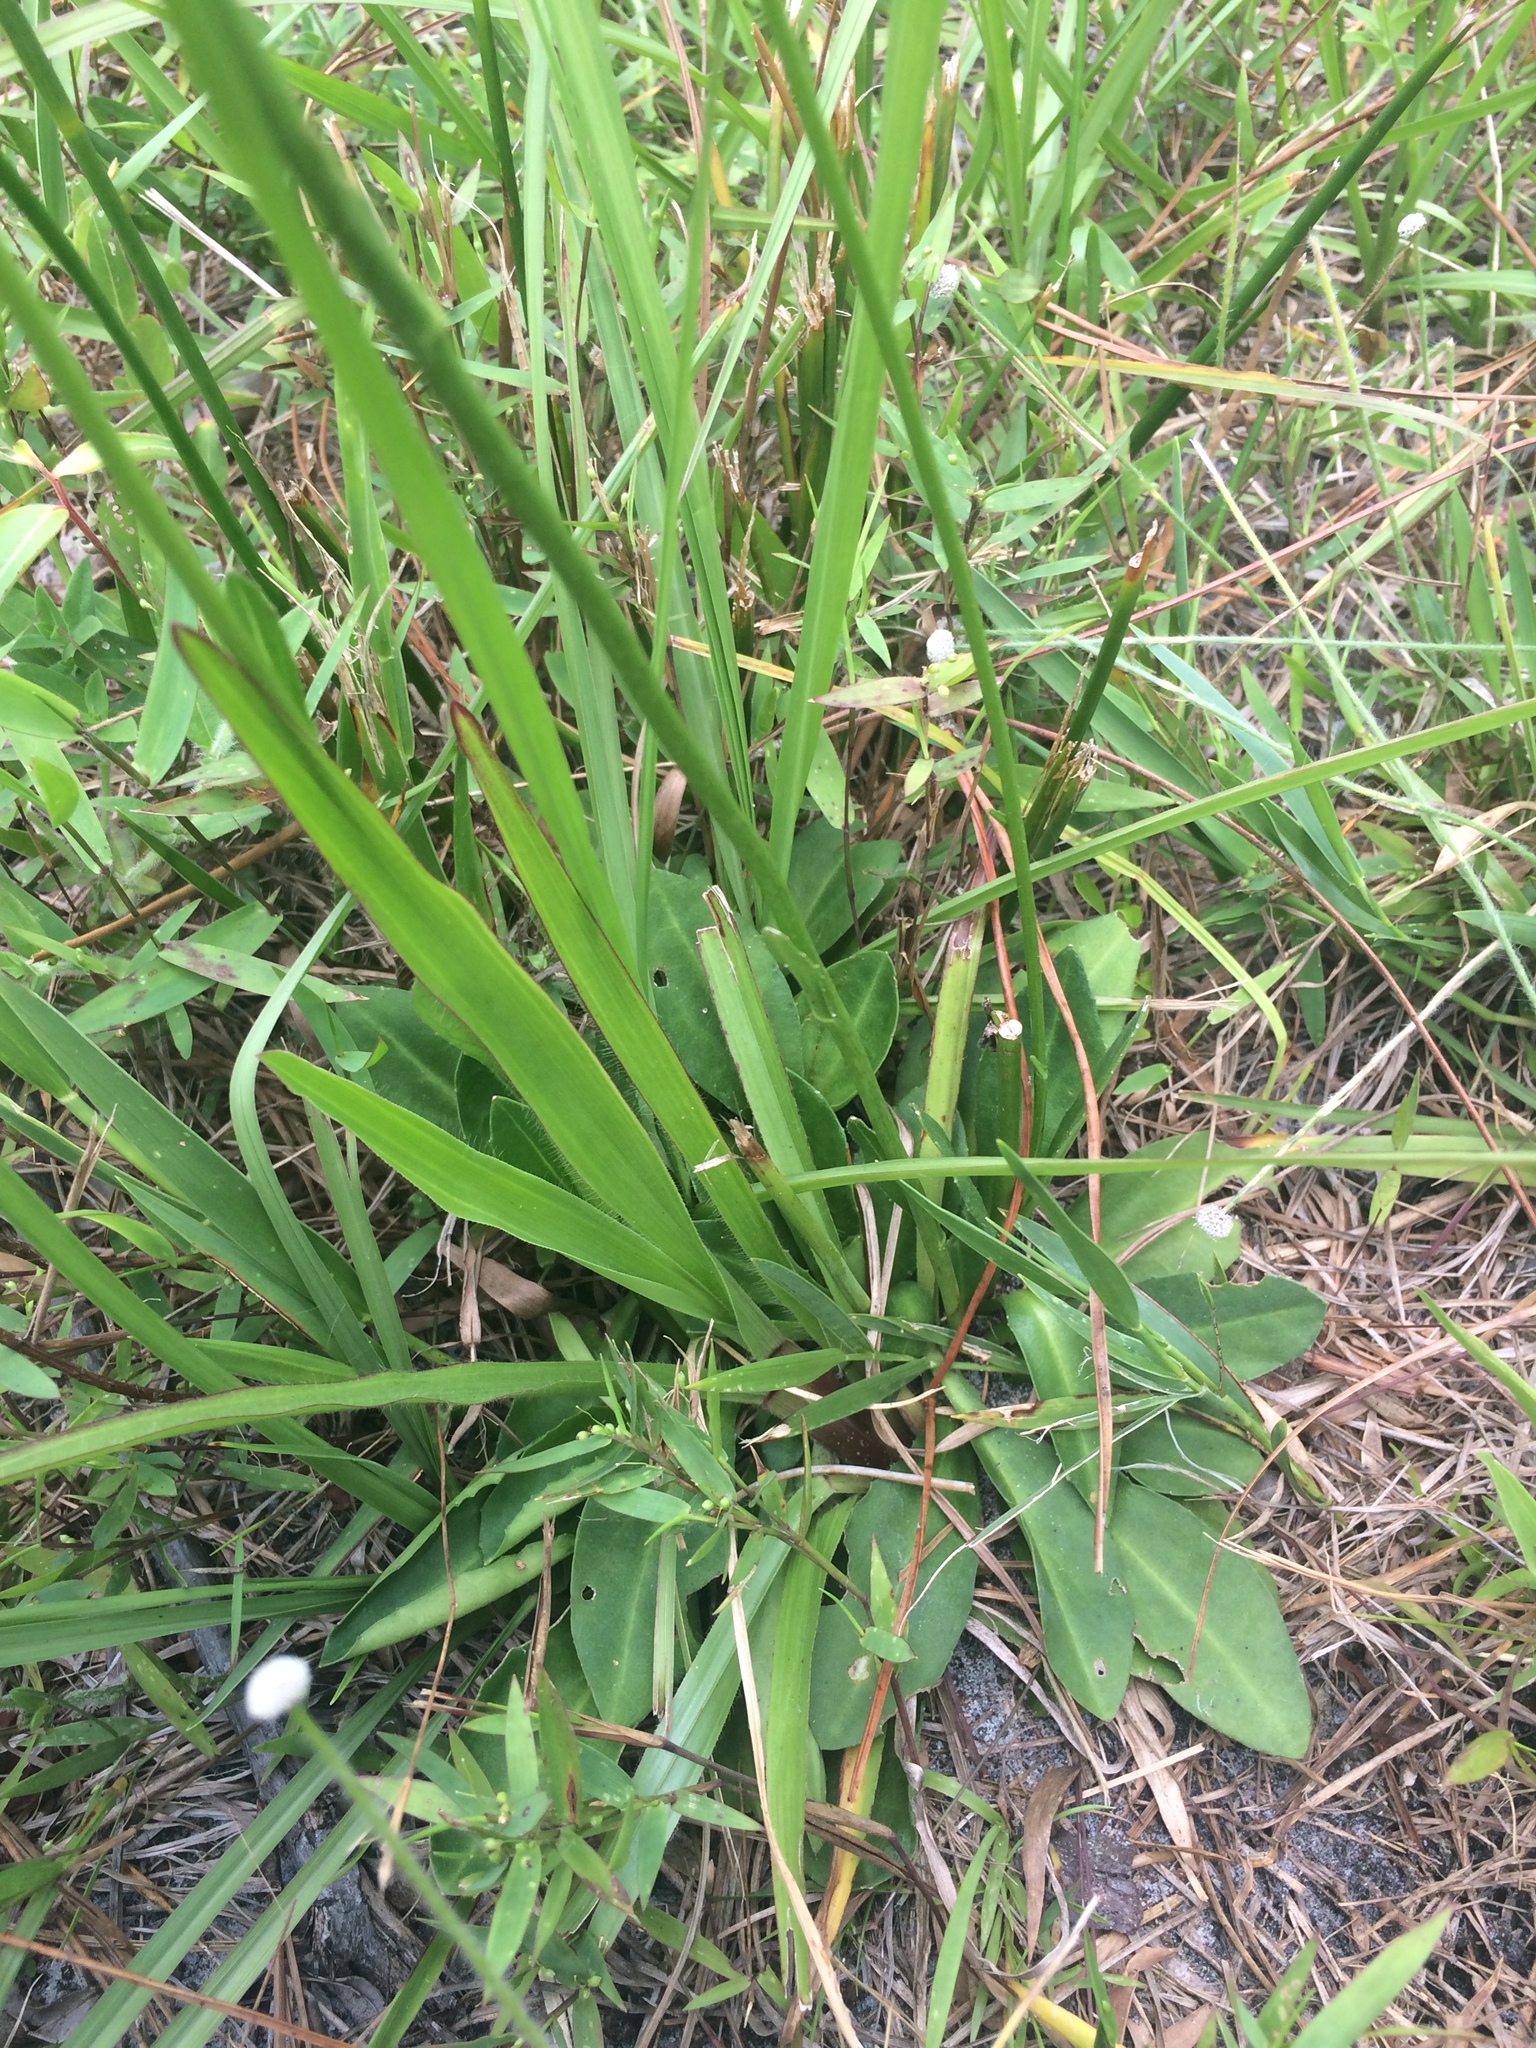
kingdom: Plantae
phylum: Tracheophyta
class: Magnoliopsida
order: Asterales
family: Asteraceae
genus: Erigeron
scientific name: Erigeron vernus
